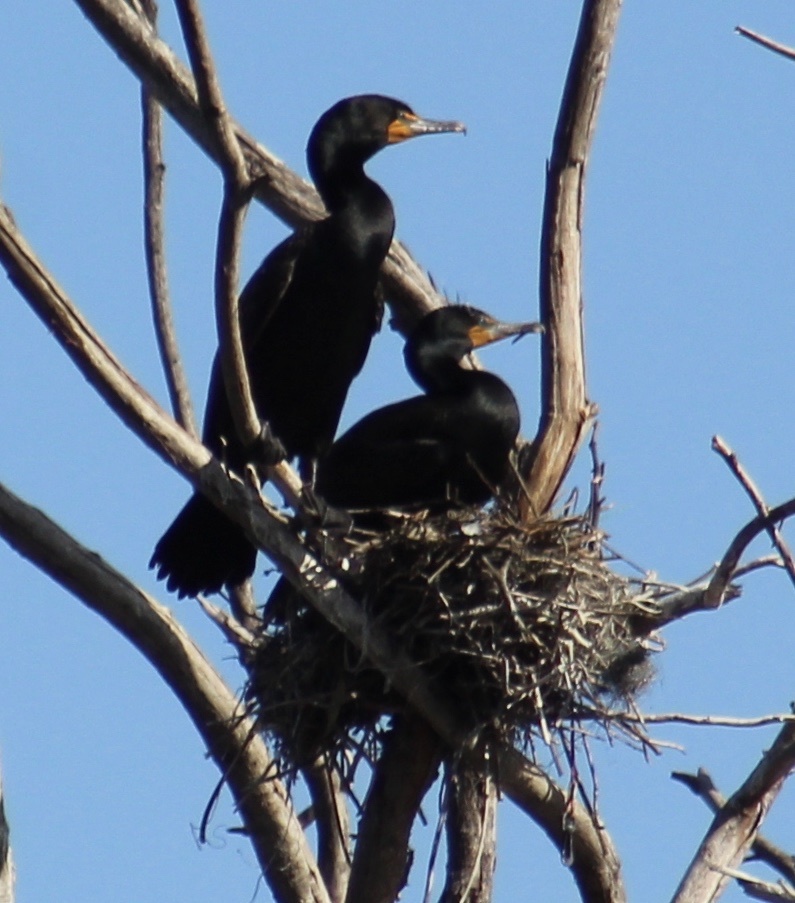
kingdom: Animalia
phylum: Chordata
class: Aves
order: Suliformes
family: Phalacrocoracidae
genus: Phalacrocorax
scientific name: Phalacrocorax auritus
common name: Double-crested cormorant
